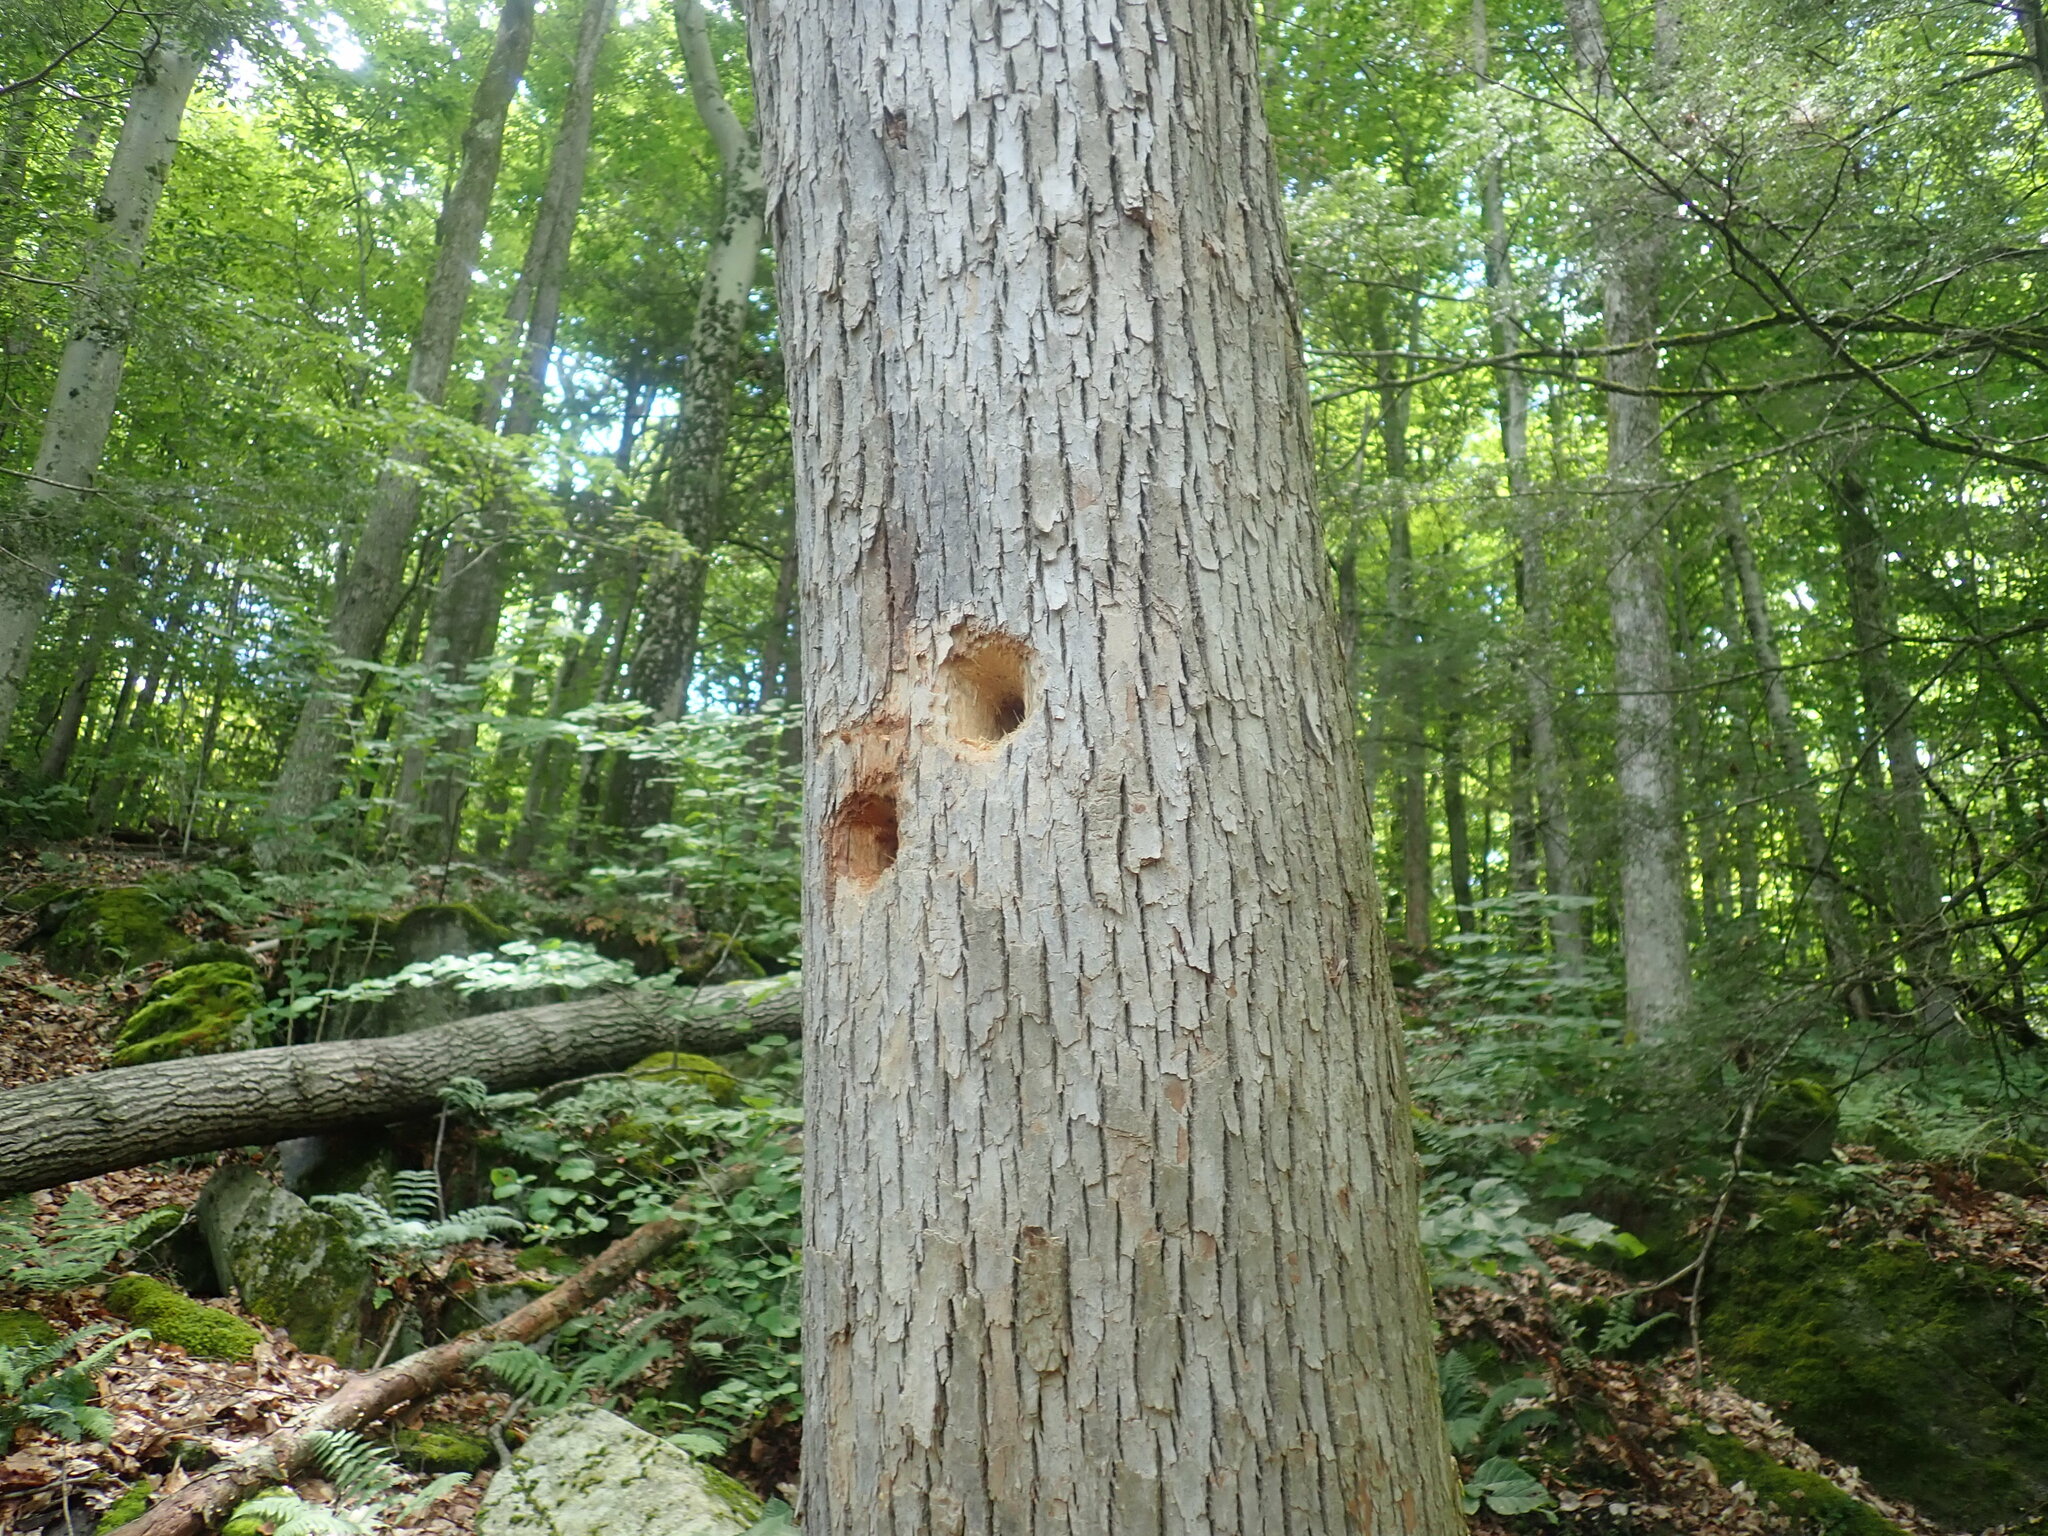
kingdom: Animalia
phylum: Chordata
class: Aves
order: Piciformes
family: Picidae
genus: Dryocopus
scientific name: Dryocopus pileatus
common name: Pileated woodpecker
